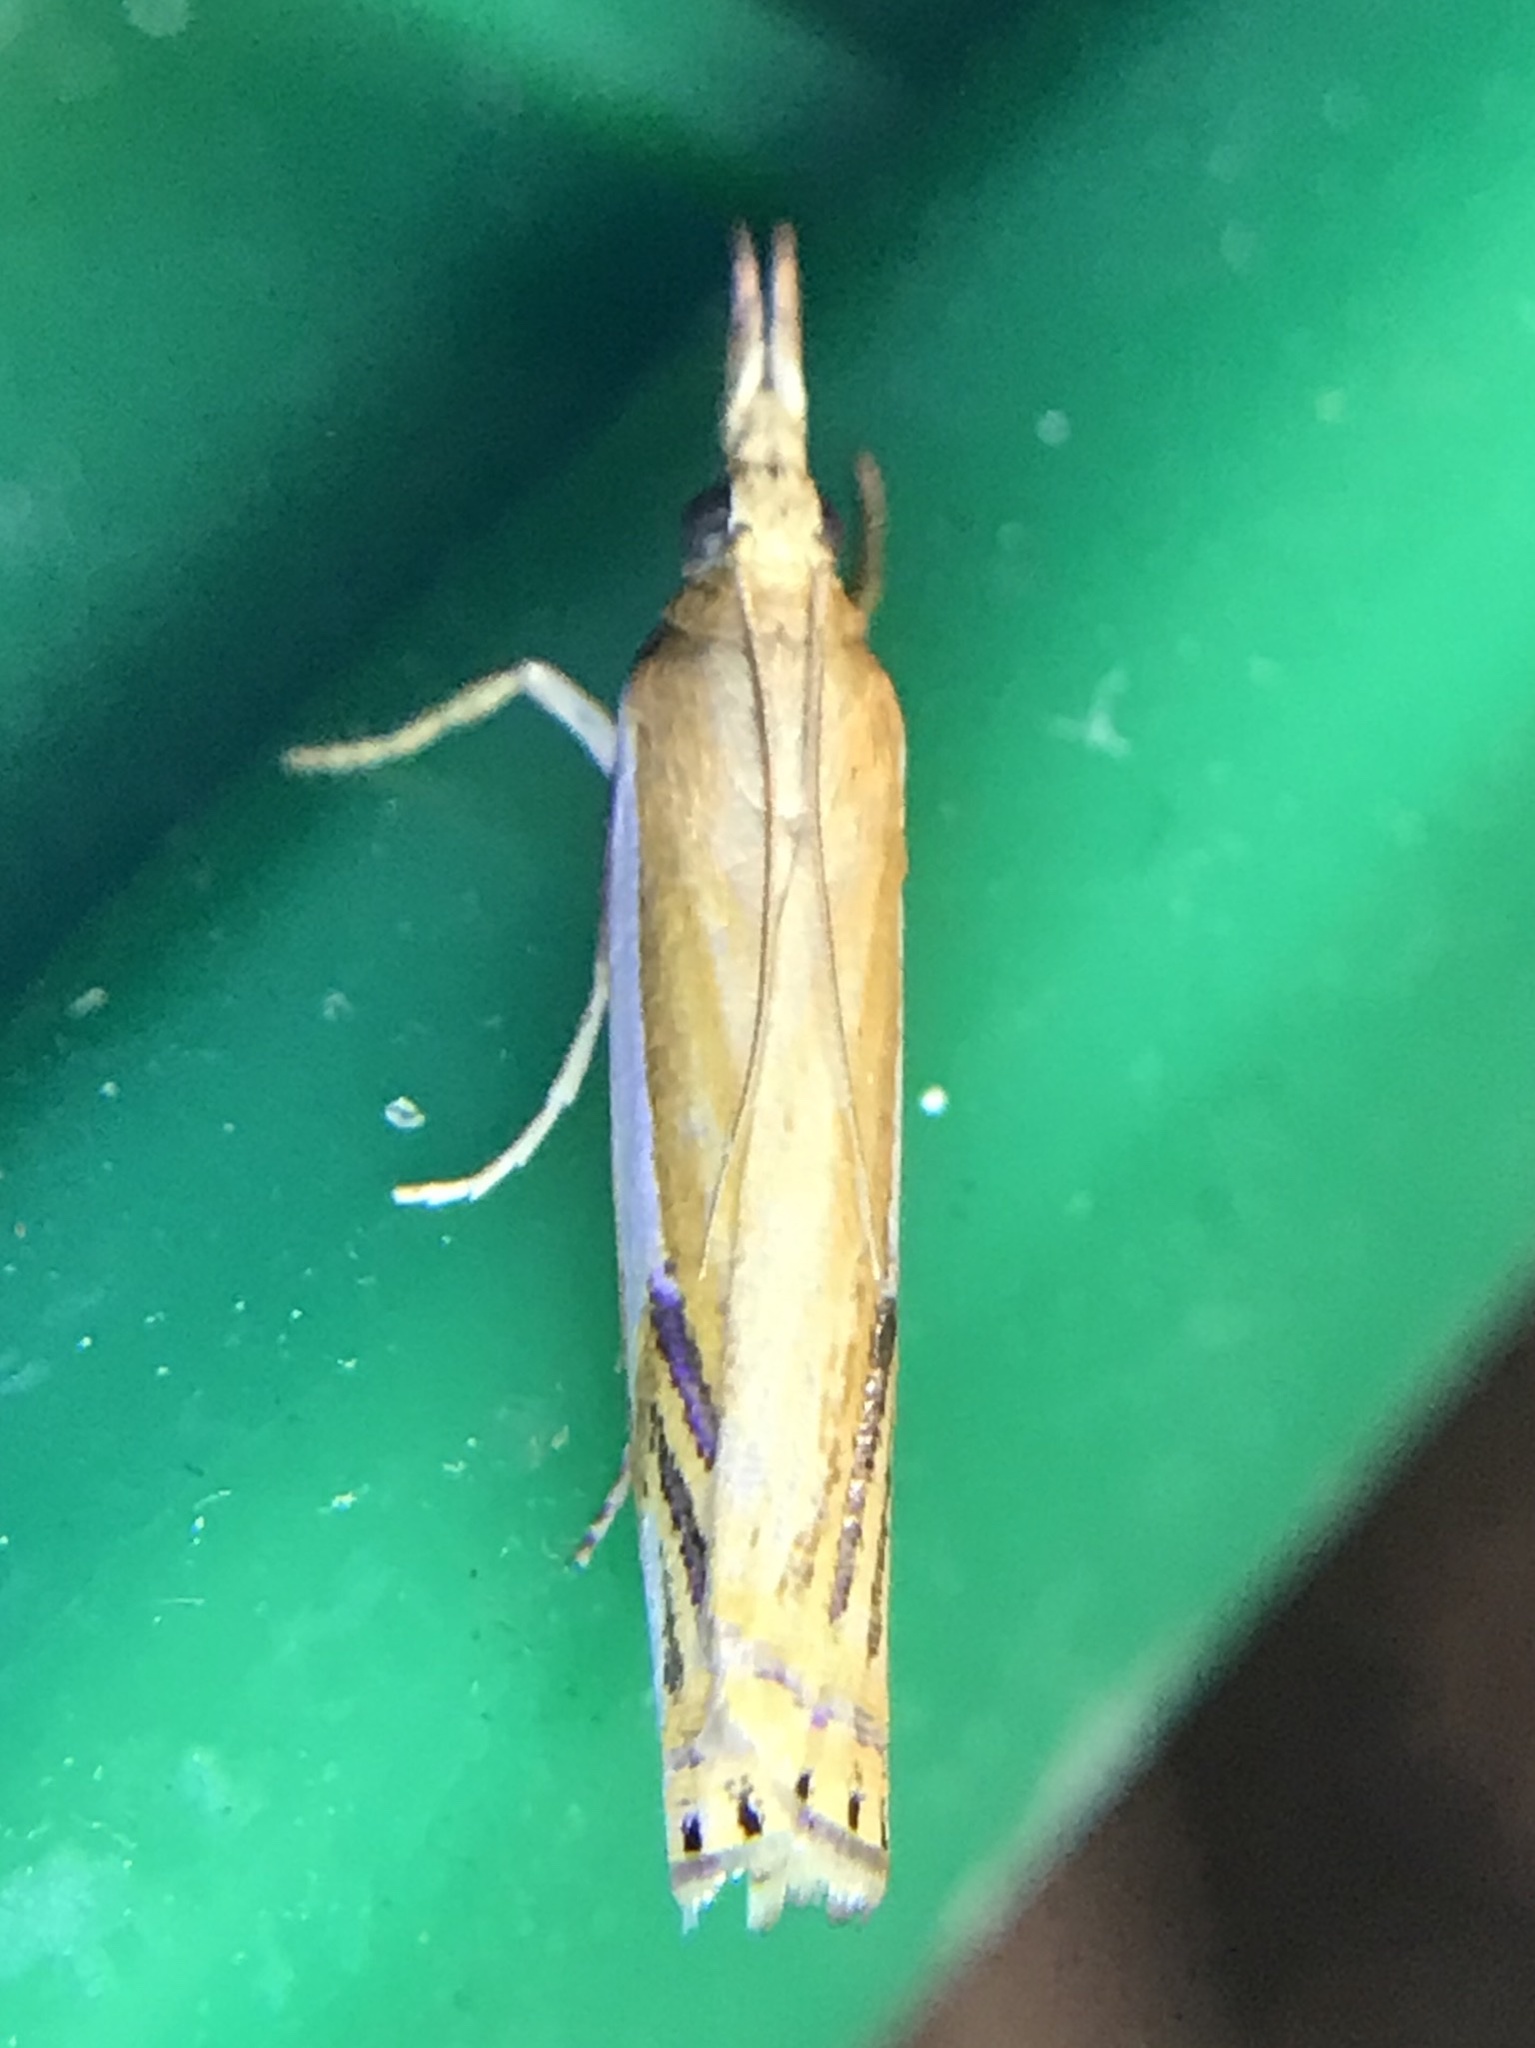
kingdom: Animalia
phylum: Arthropoda
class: Insecta
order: Lepidoptera
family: Crambidae
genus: Crambus
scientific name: Crambus agitatellus
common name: Double-banded grass-veneer
